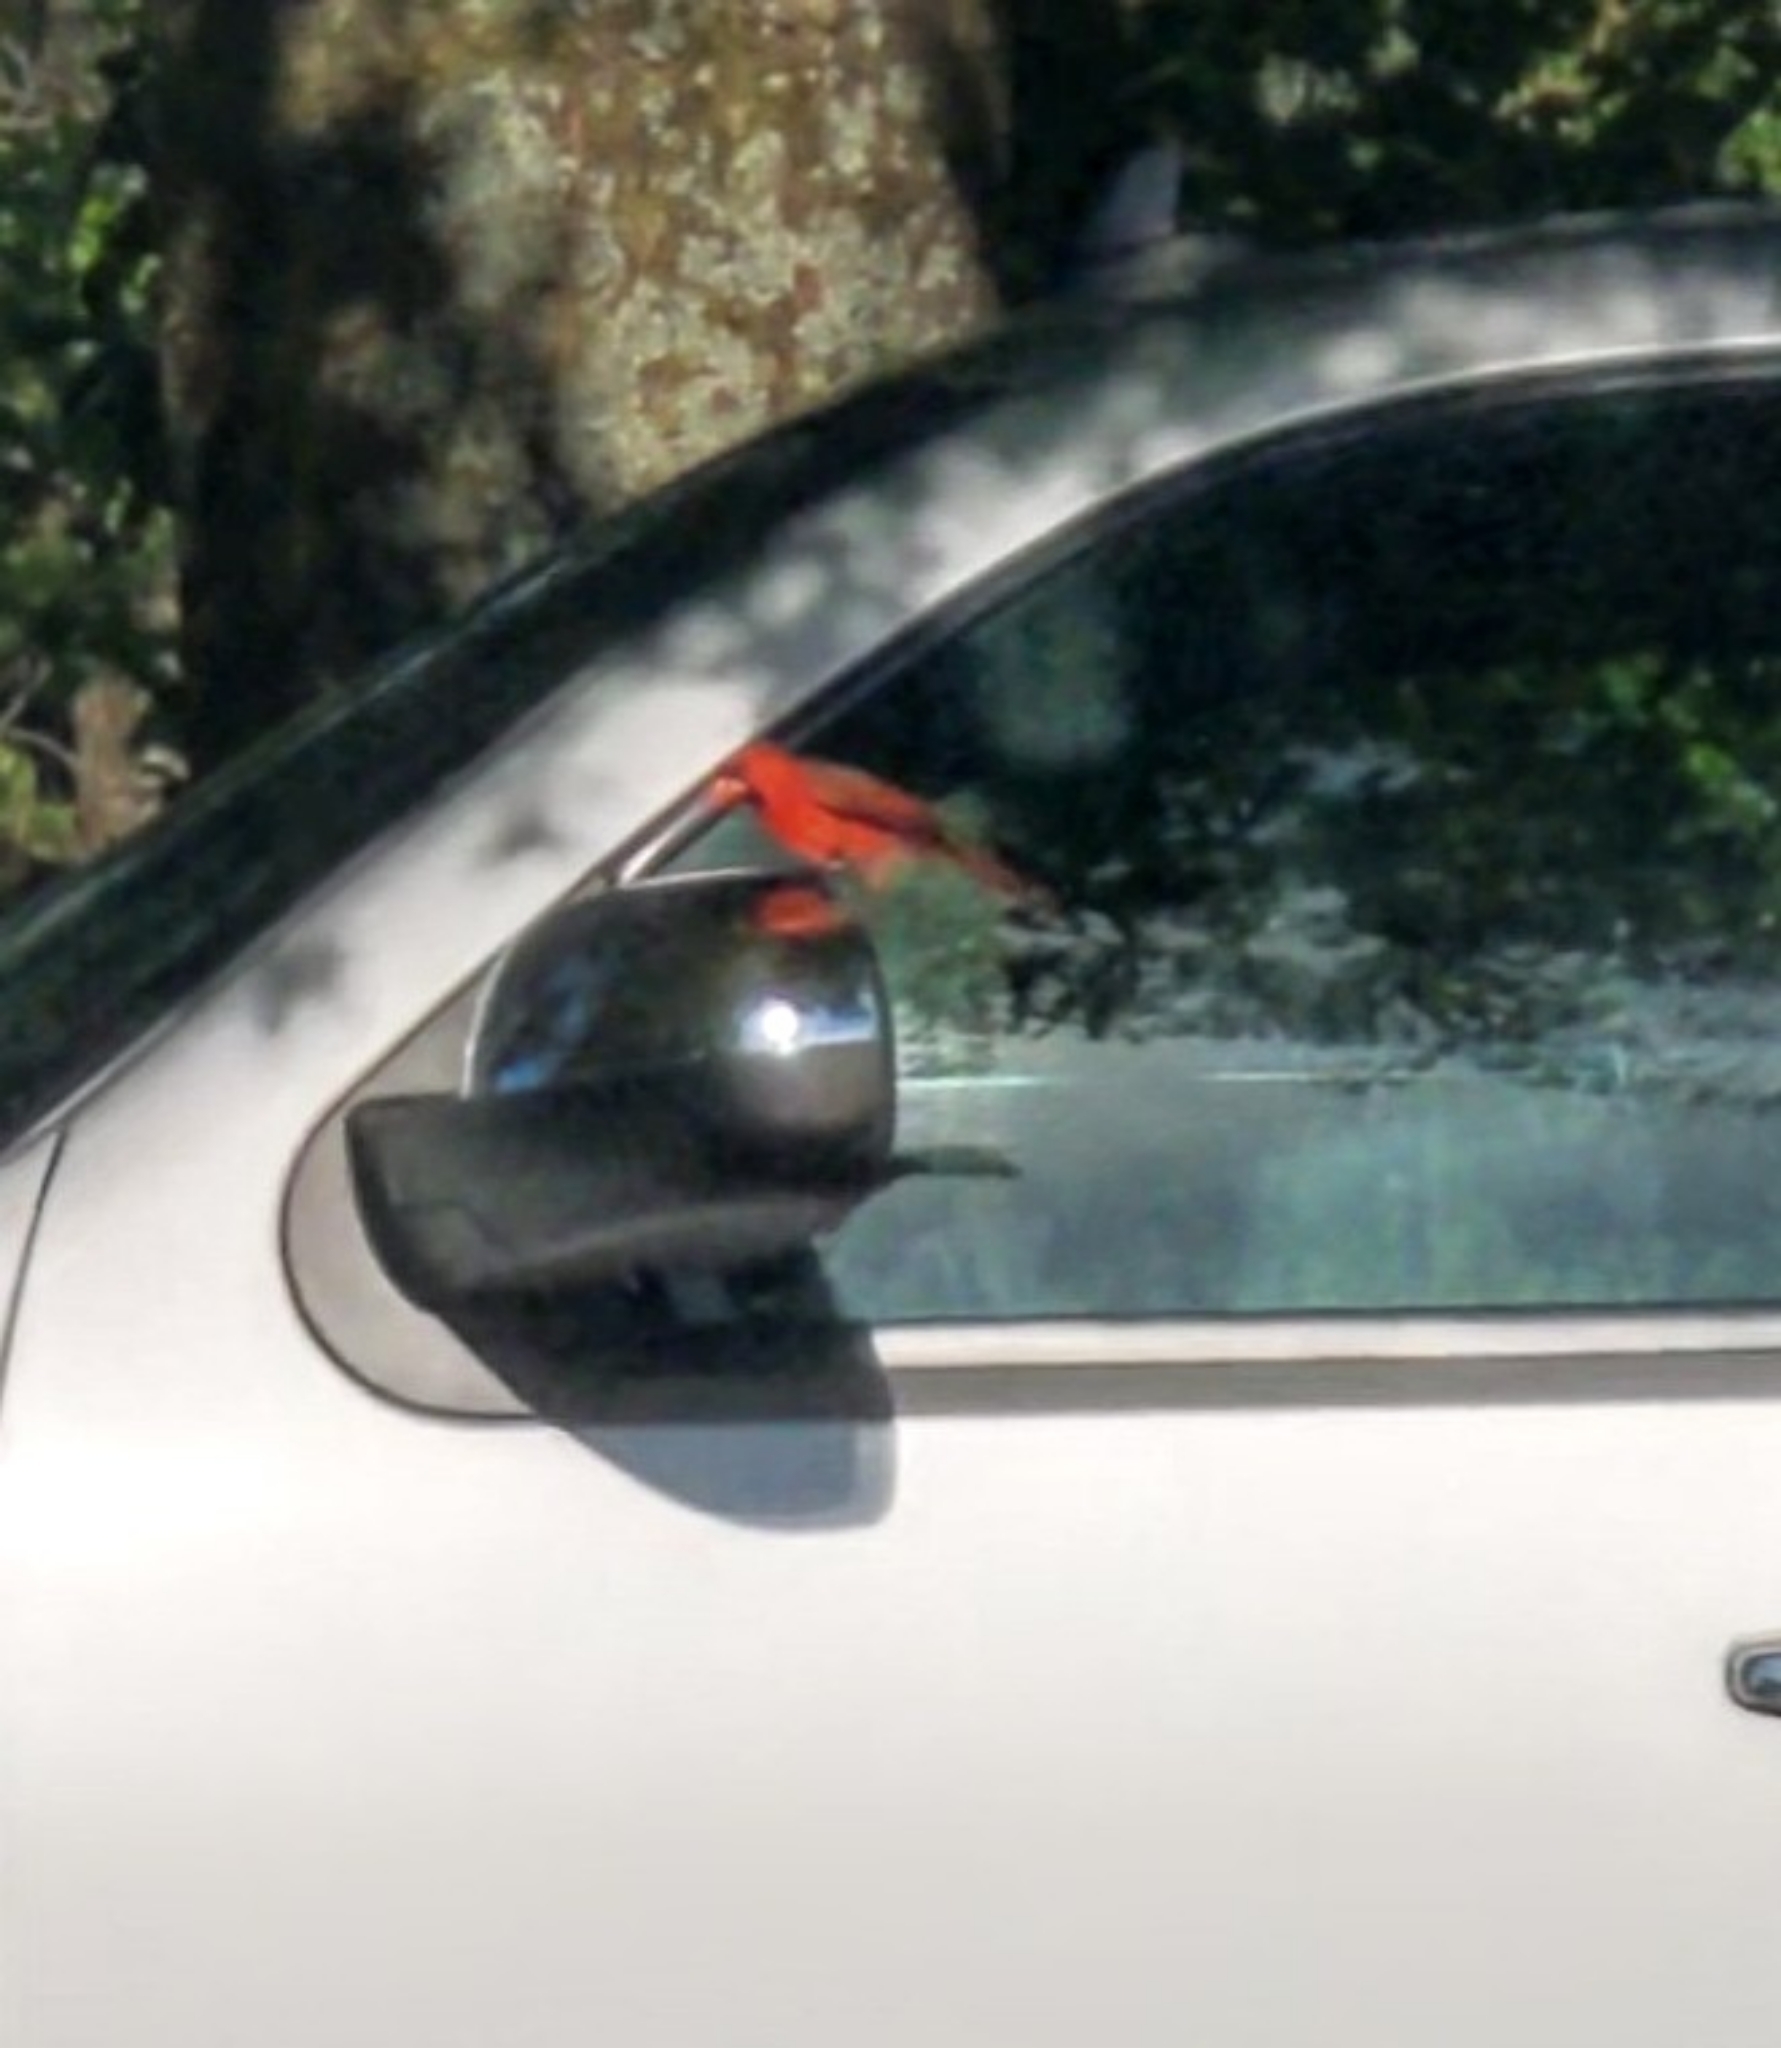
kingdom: Animalia
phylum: Chordata
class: Aves
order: Passeriformes
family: Cardinalidae
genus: Cardinalis
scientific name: Cardinalis cardinalis
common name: Northern cardinal
